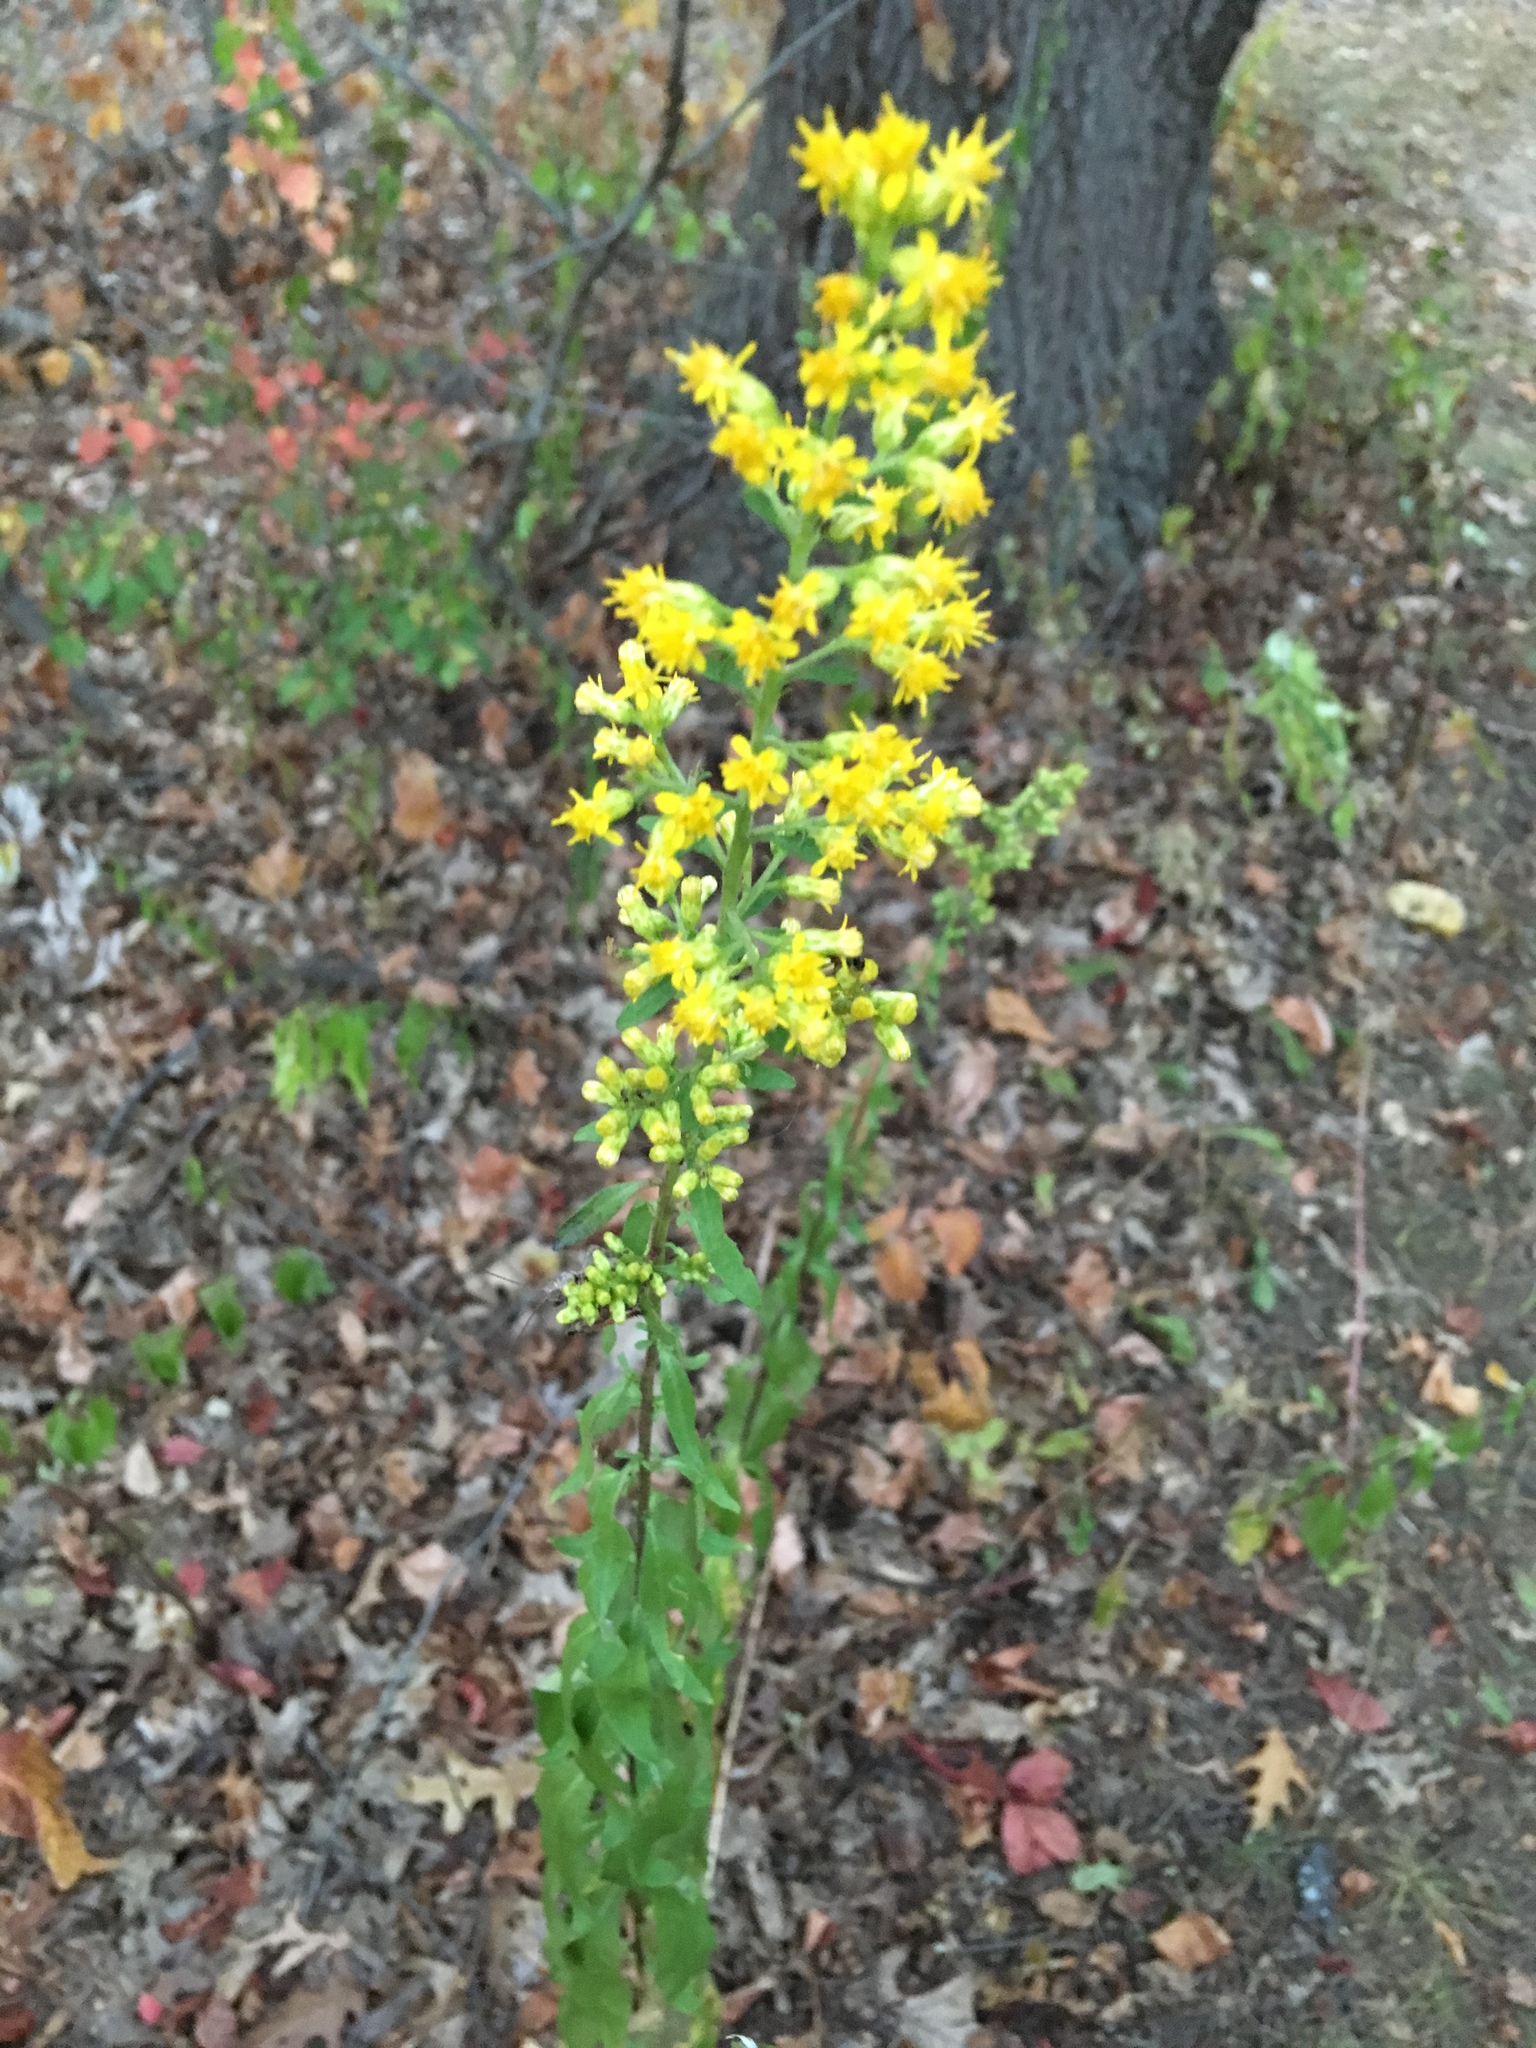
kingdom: Plantae
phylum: Tracheophyta
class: Magnoliopsida
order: Asterales
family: Asteraceae
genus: Solidago
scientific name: Solidago speciosa
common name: Showy goldenrod
